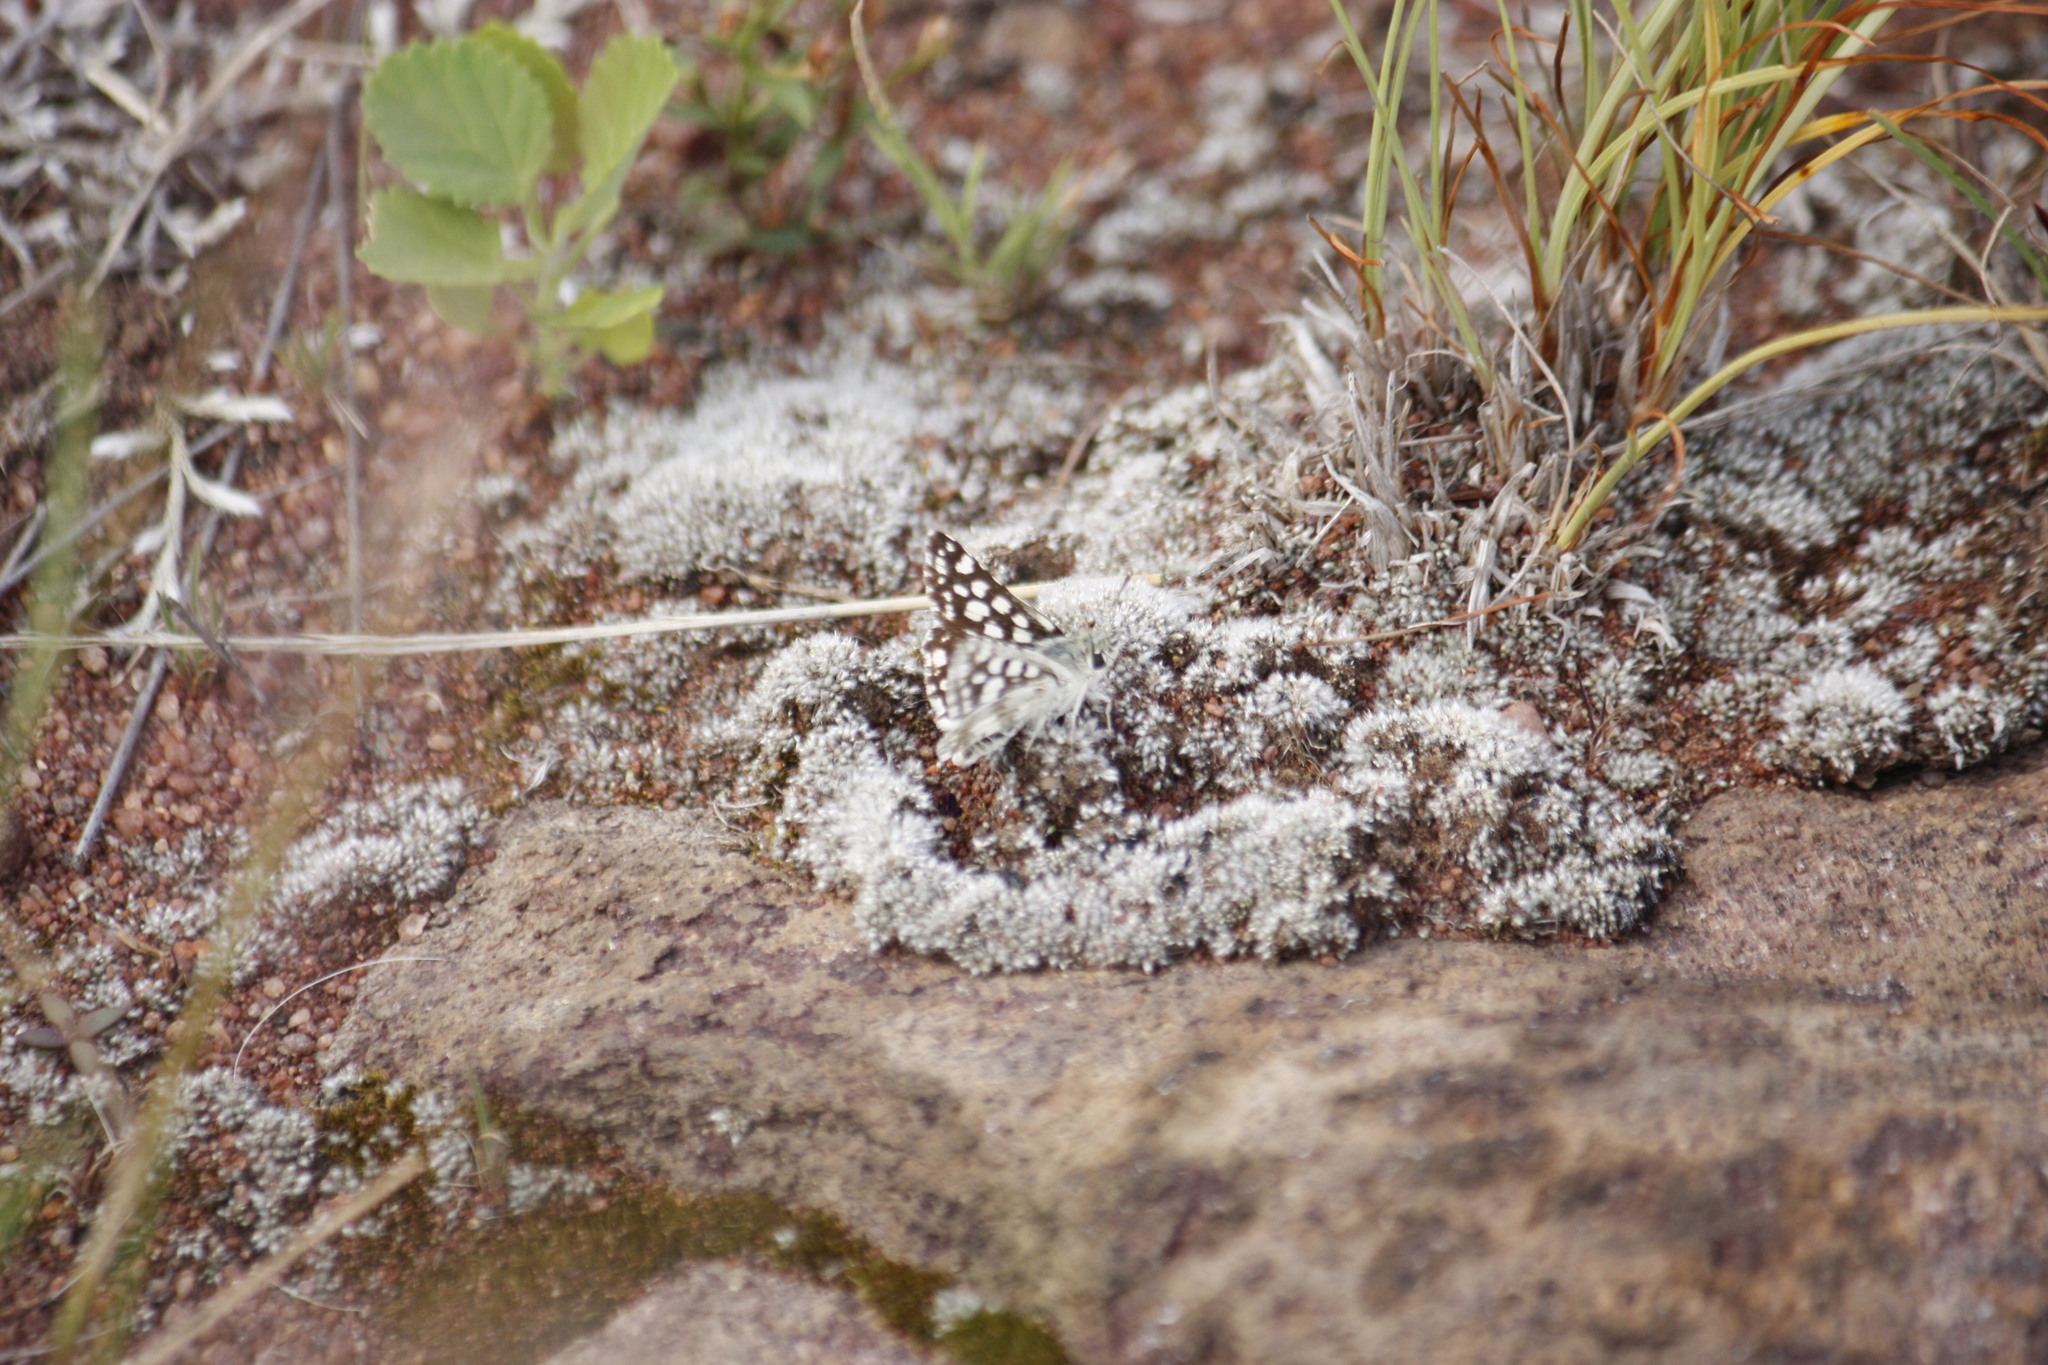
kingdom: Animalia
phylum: Arthropoda
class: Insecta
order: Lepidoptera
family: Hesperiidae
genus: Spialia
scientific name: Spialia spio
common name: Mountain sandman
